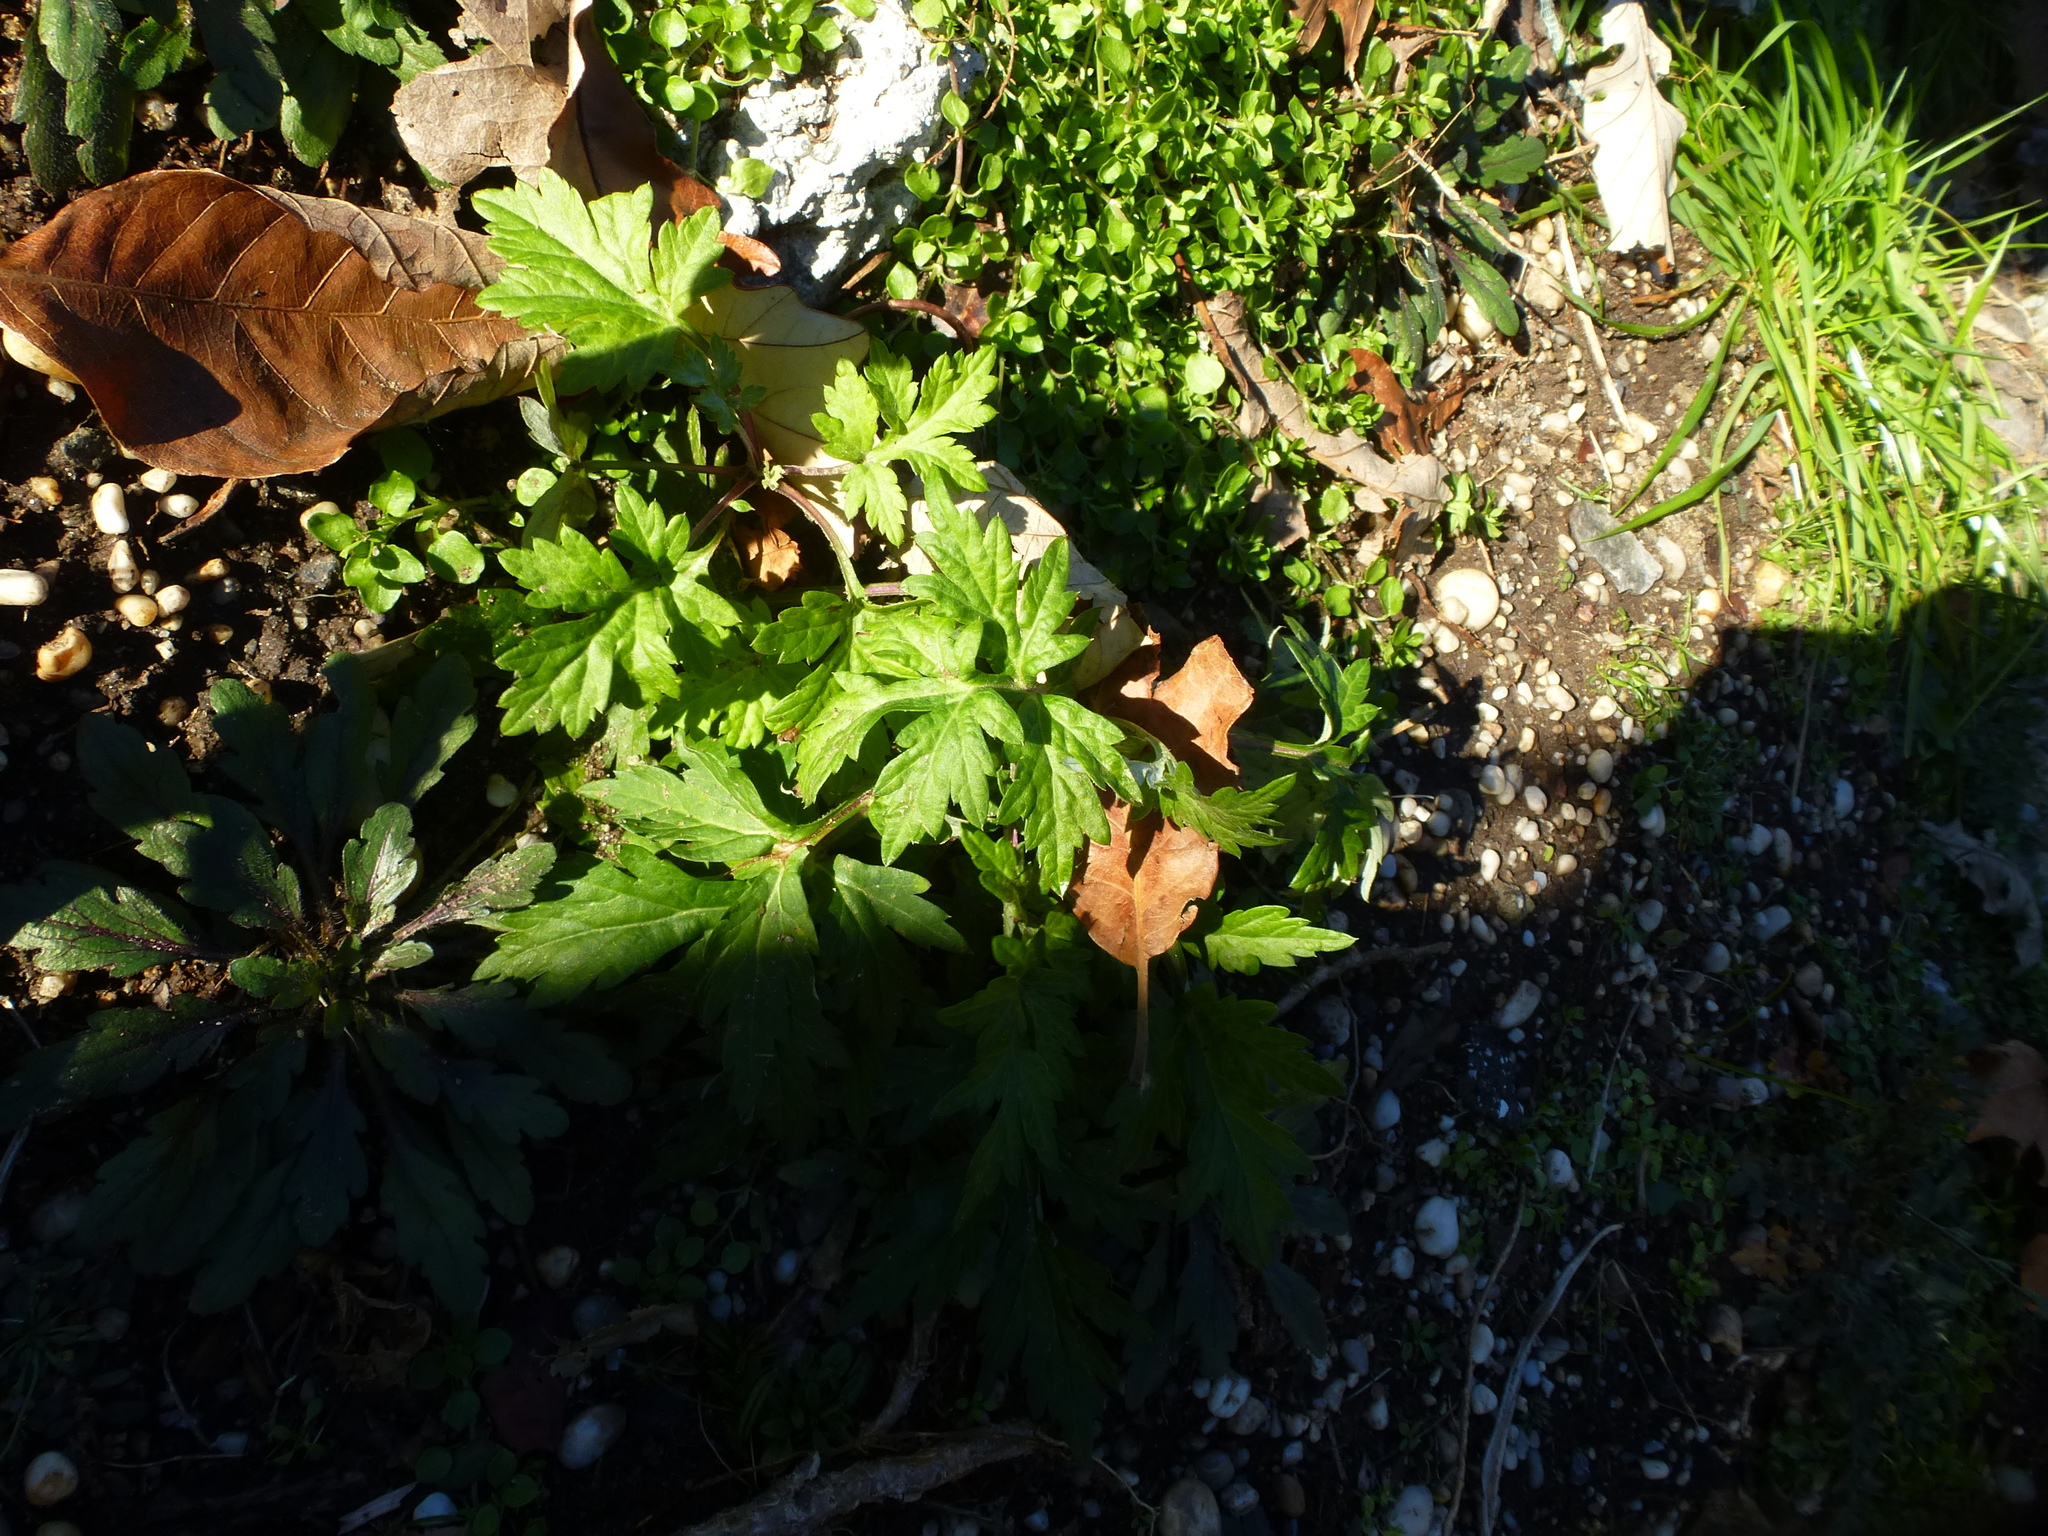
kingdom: Plantae
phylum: Tracheophyta
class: Magnoliopsida
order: Asterales
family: Asteraceae
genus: Artemisia
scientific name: Artemisia vulgaris
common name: Mugwort
